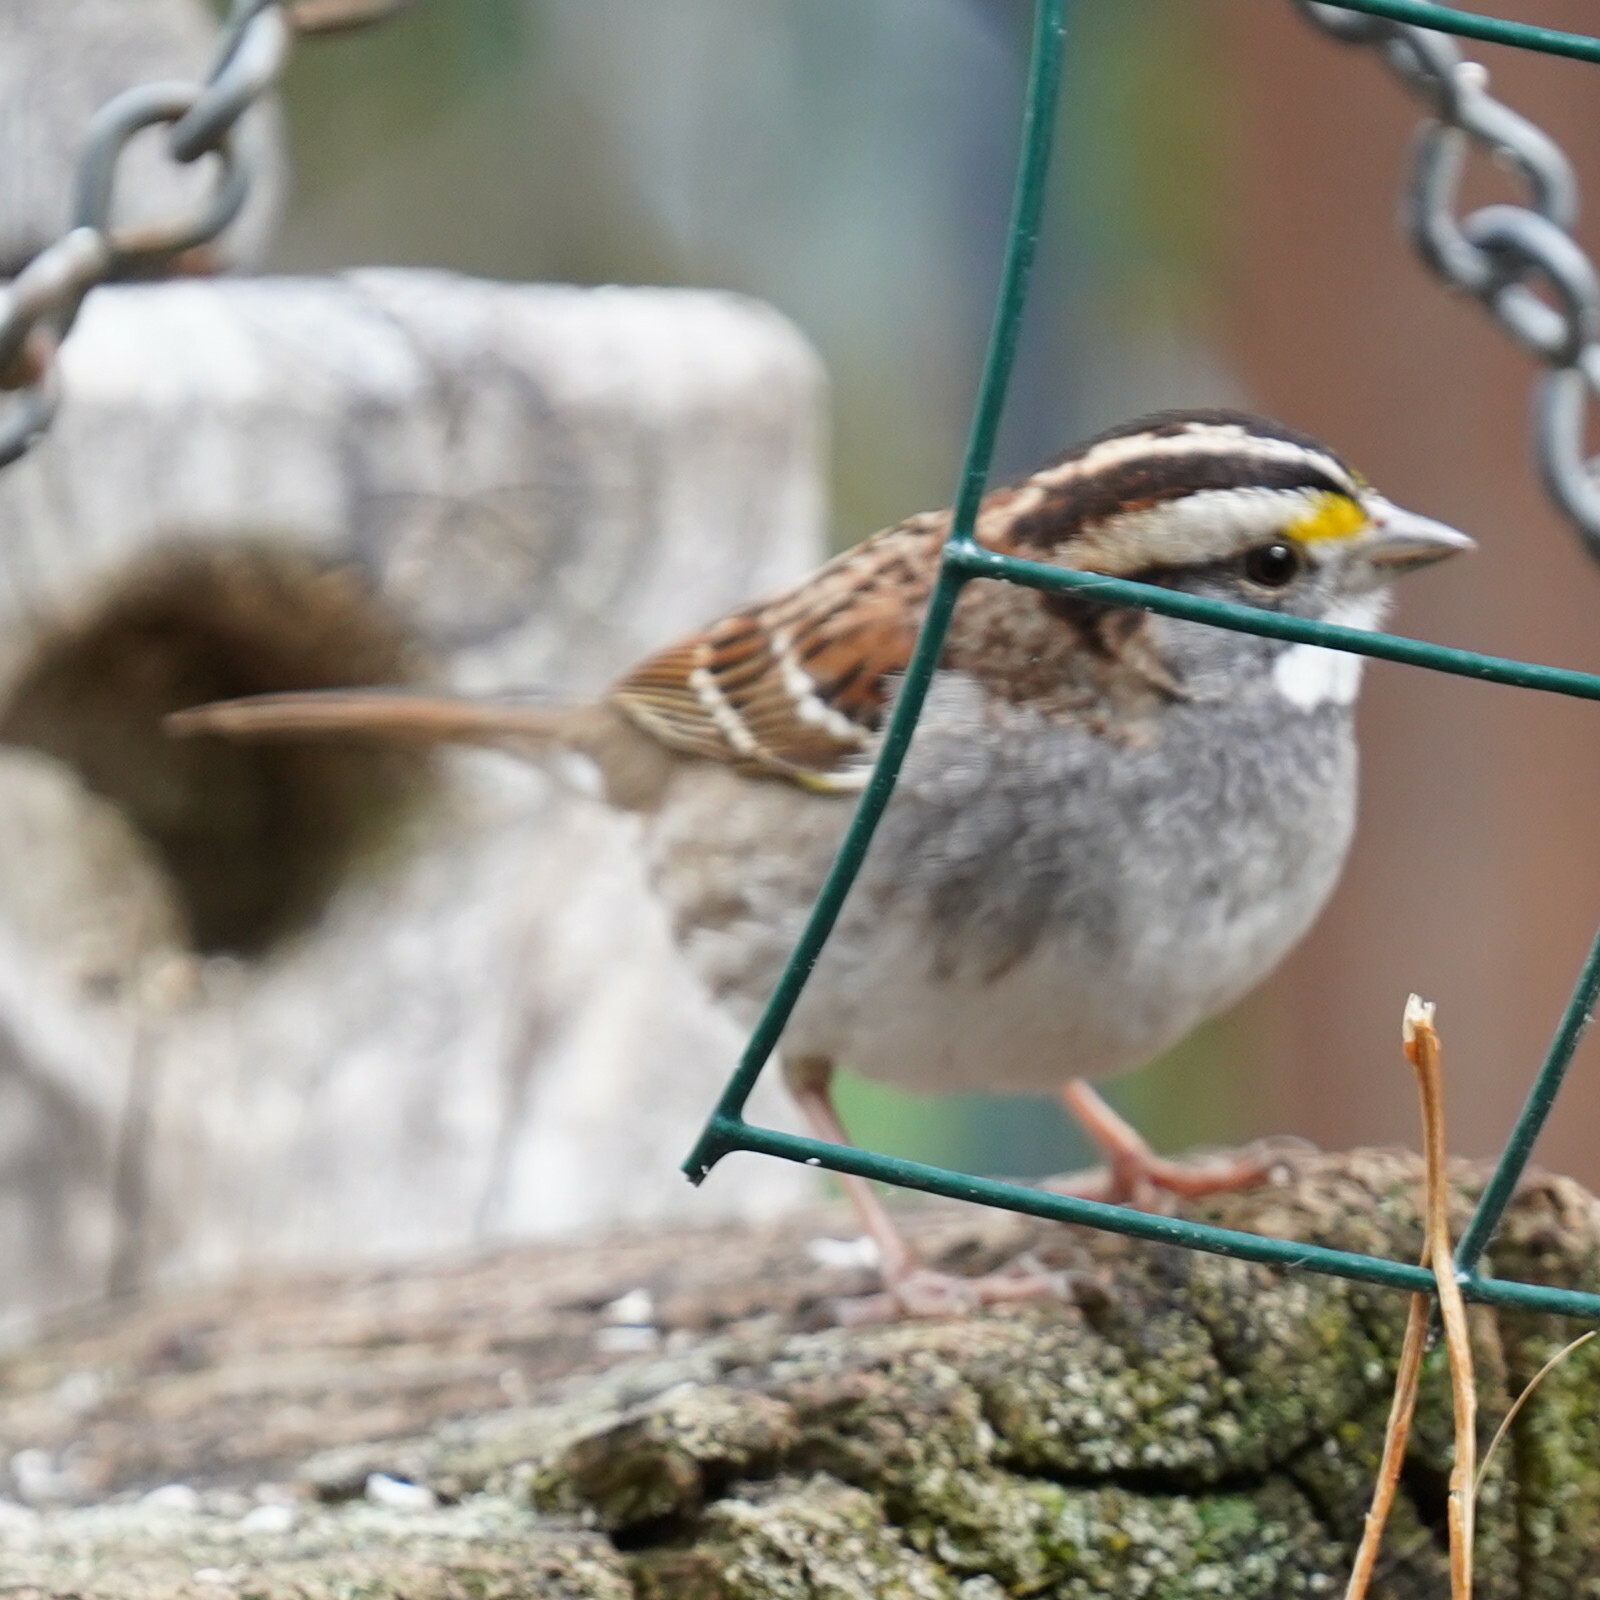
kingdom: Animalia
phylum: Chordata
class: Aves
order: Passeriformes
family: Passerellidae
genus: Zonotrichia
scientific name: Zonotrichia albicollis
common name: White-throated sparrow
